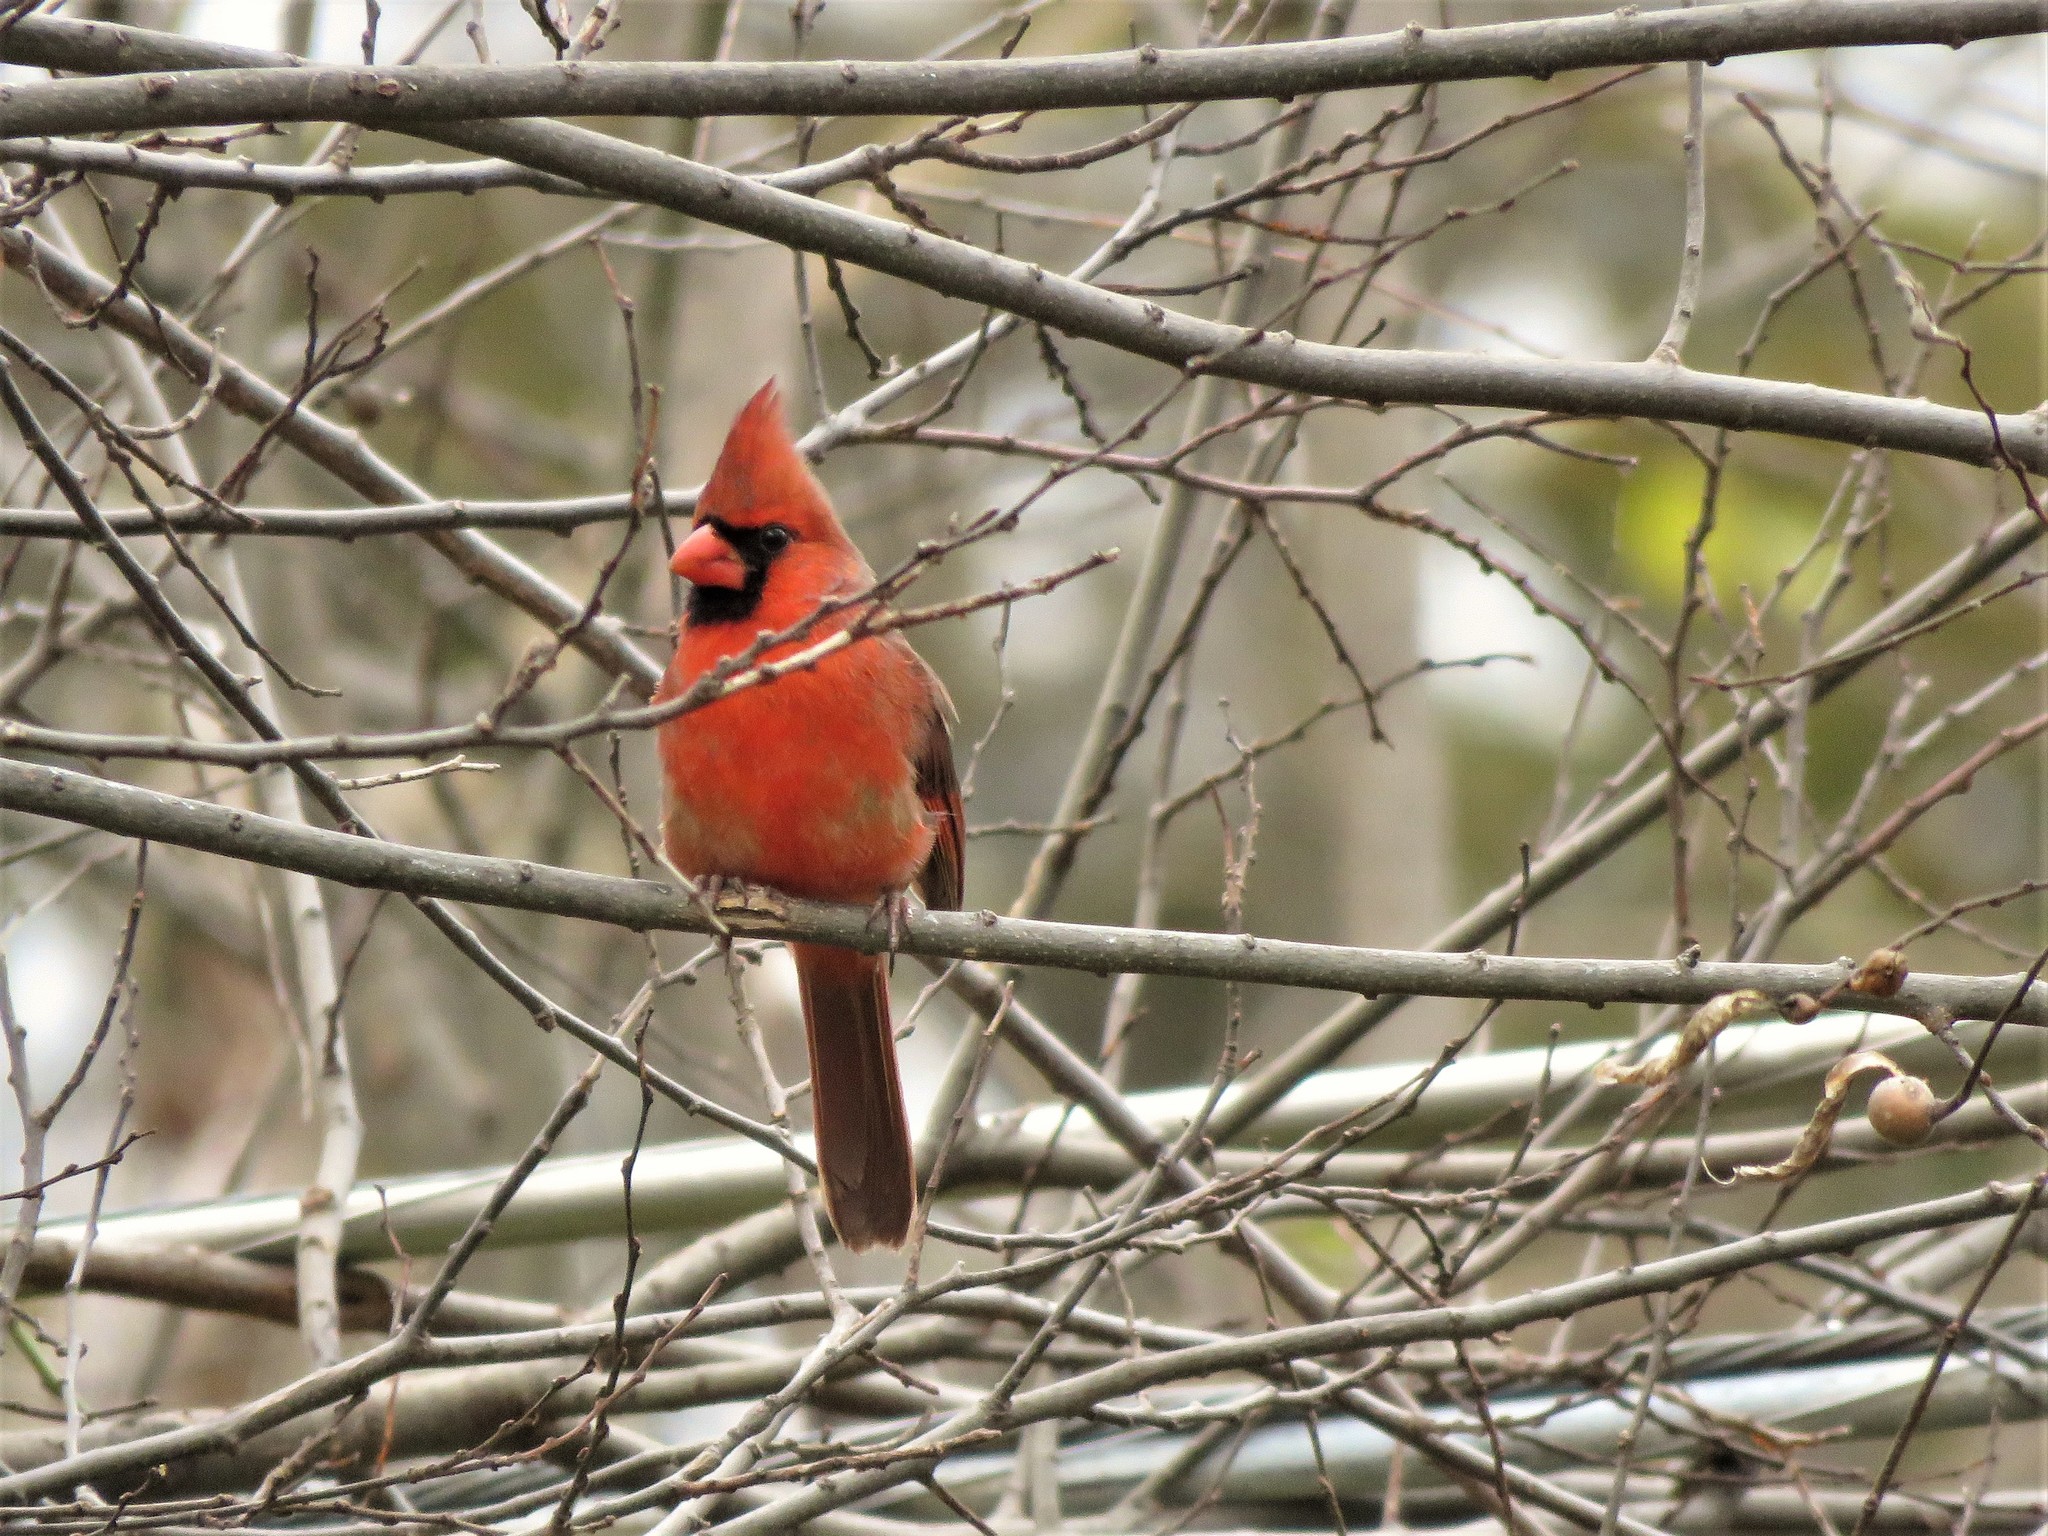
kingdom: Animalia
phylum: Chordata
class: Aves
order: Passeriformes
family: Cardinalidae
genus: Cardinalis
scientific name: Cardinalis cardinalis
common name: Northern cardinal
